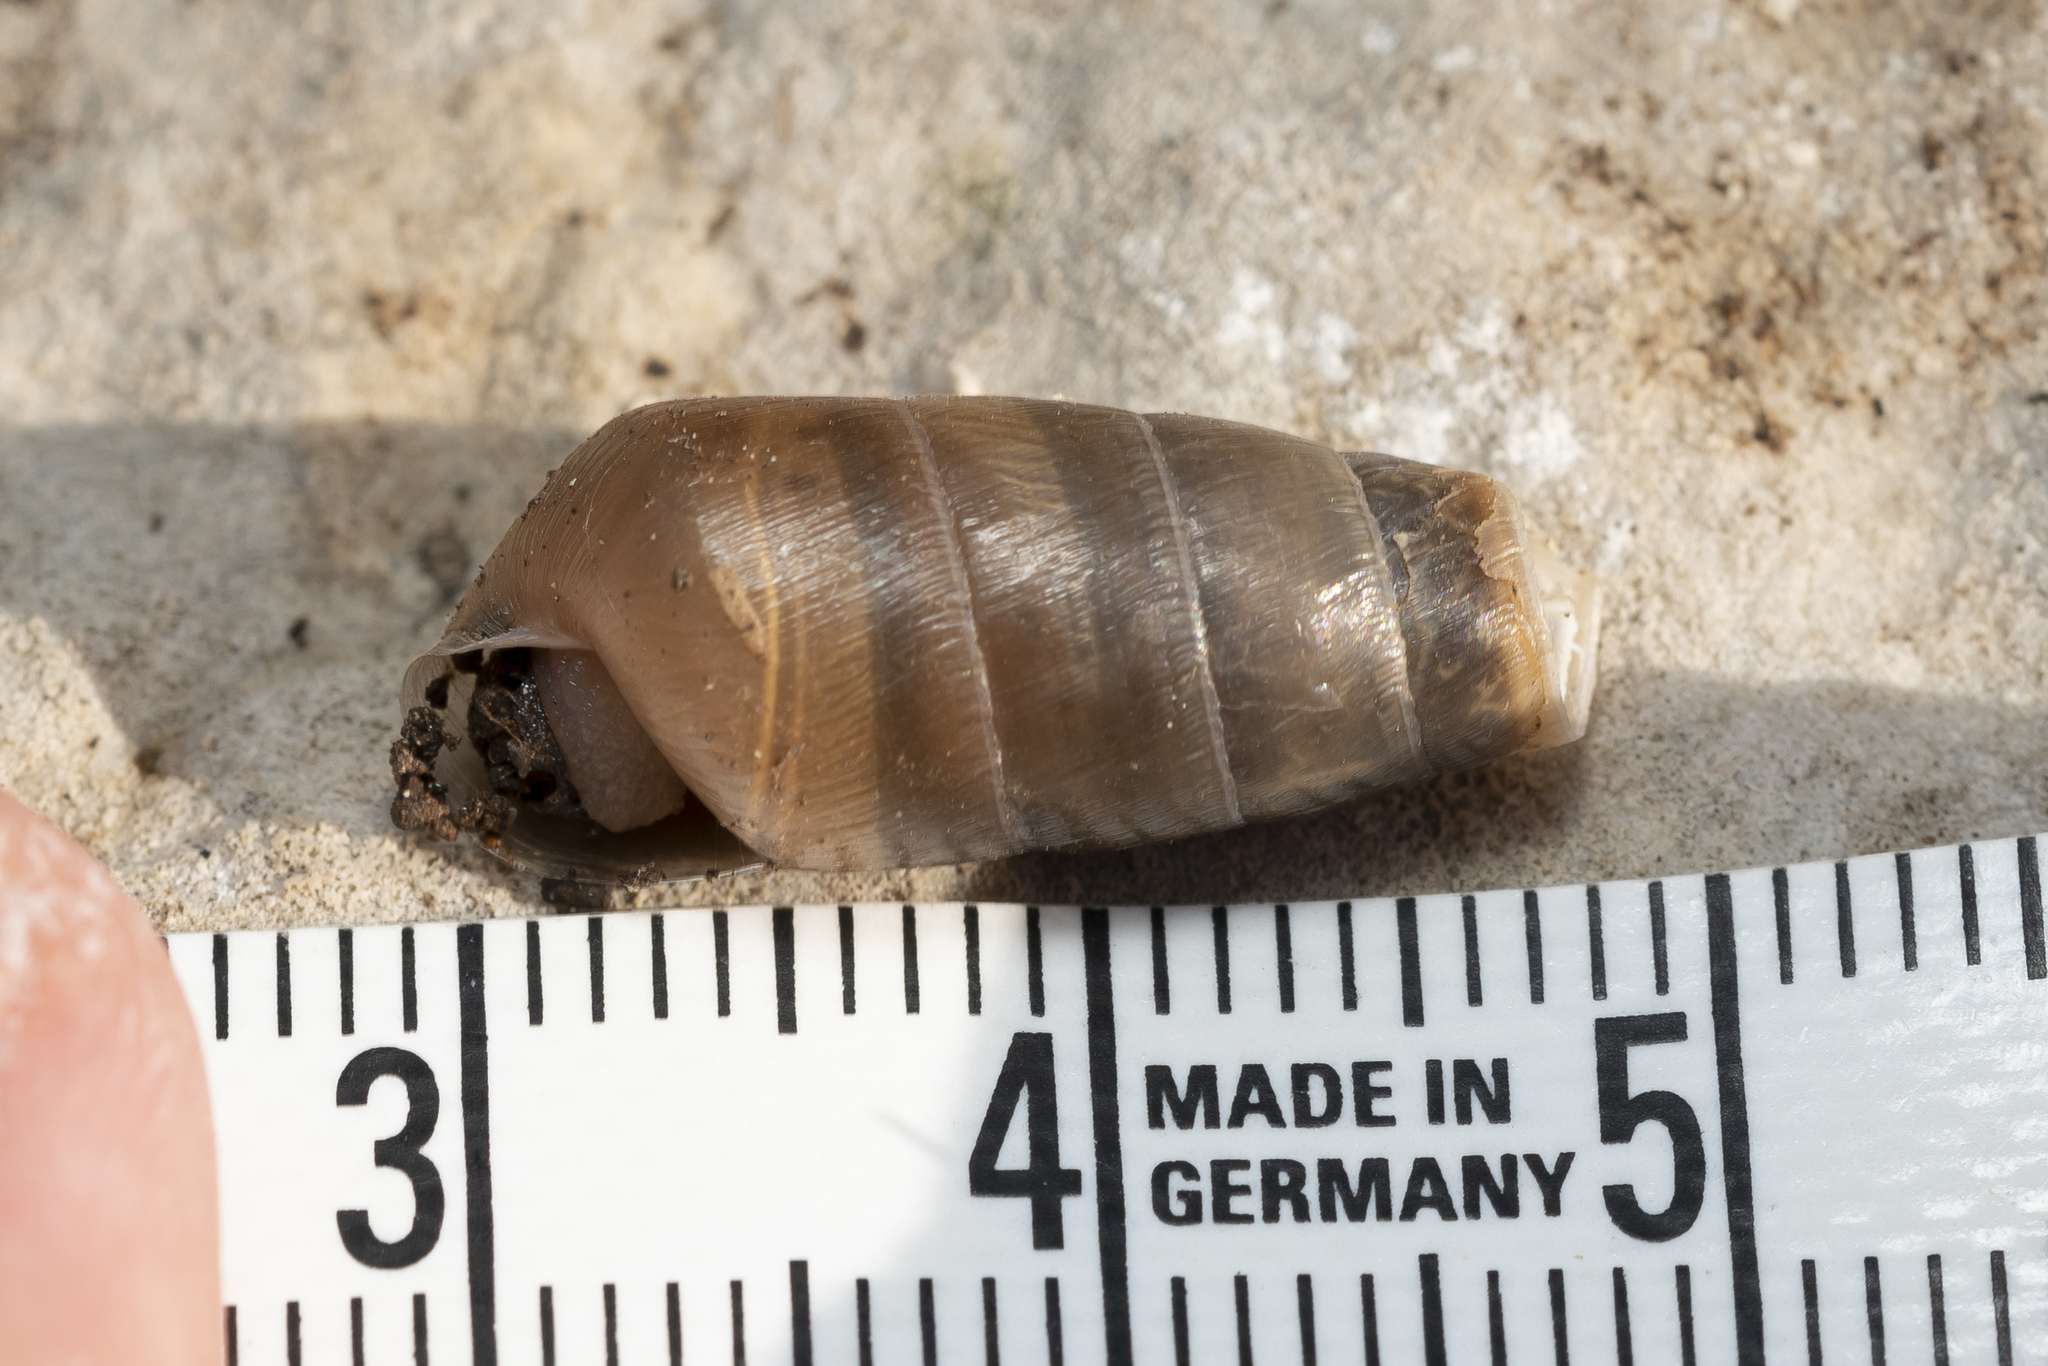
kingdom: Animalia
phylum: Mollusca
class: Gastropoda
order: Stylommatophora
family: Achatinidae
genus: Rumina
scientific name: Rumina saharica
